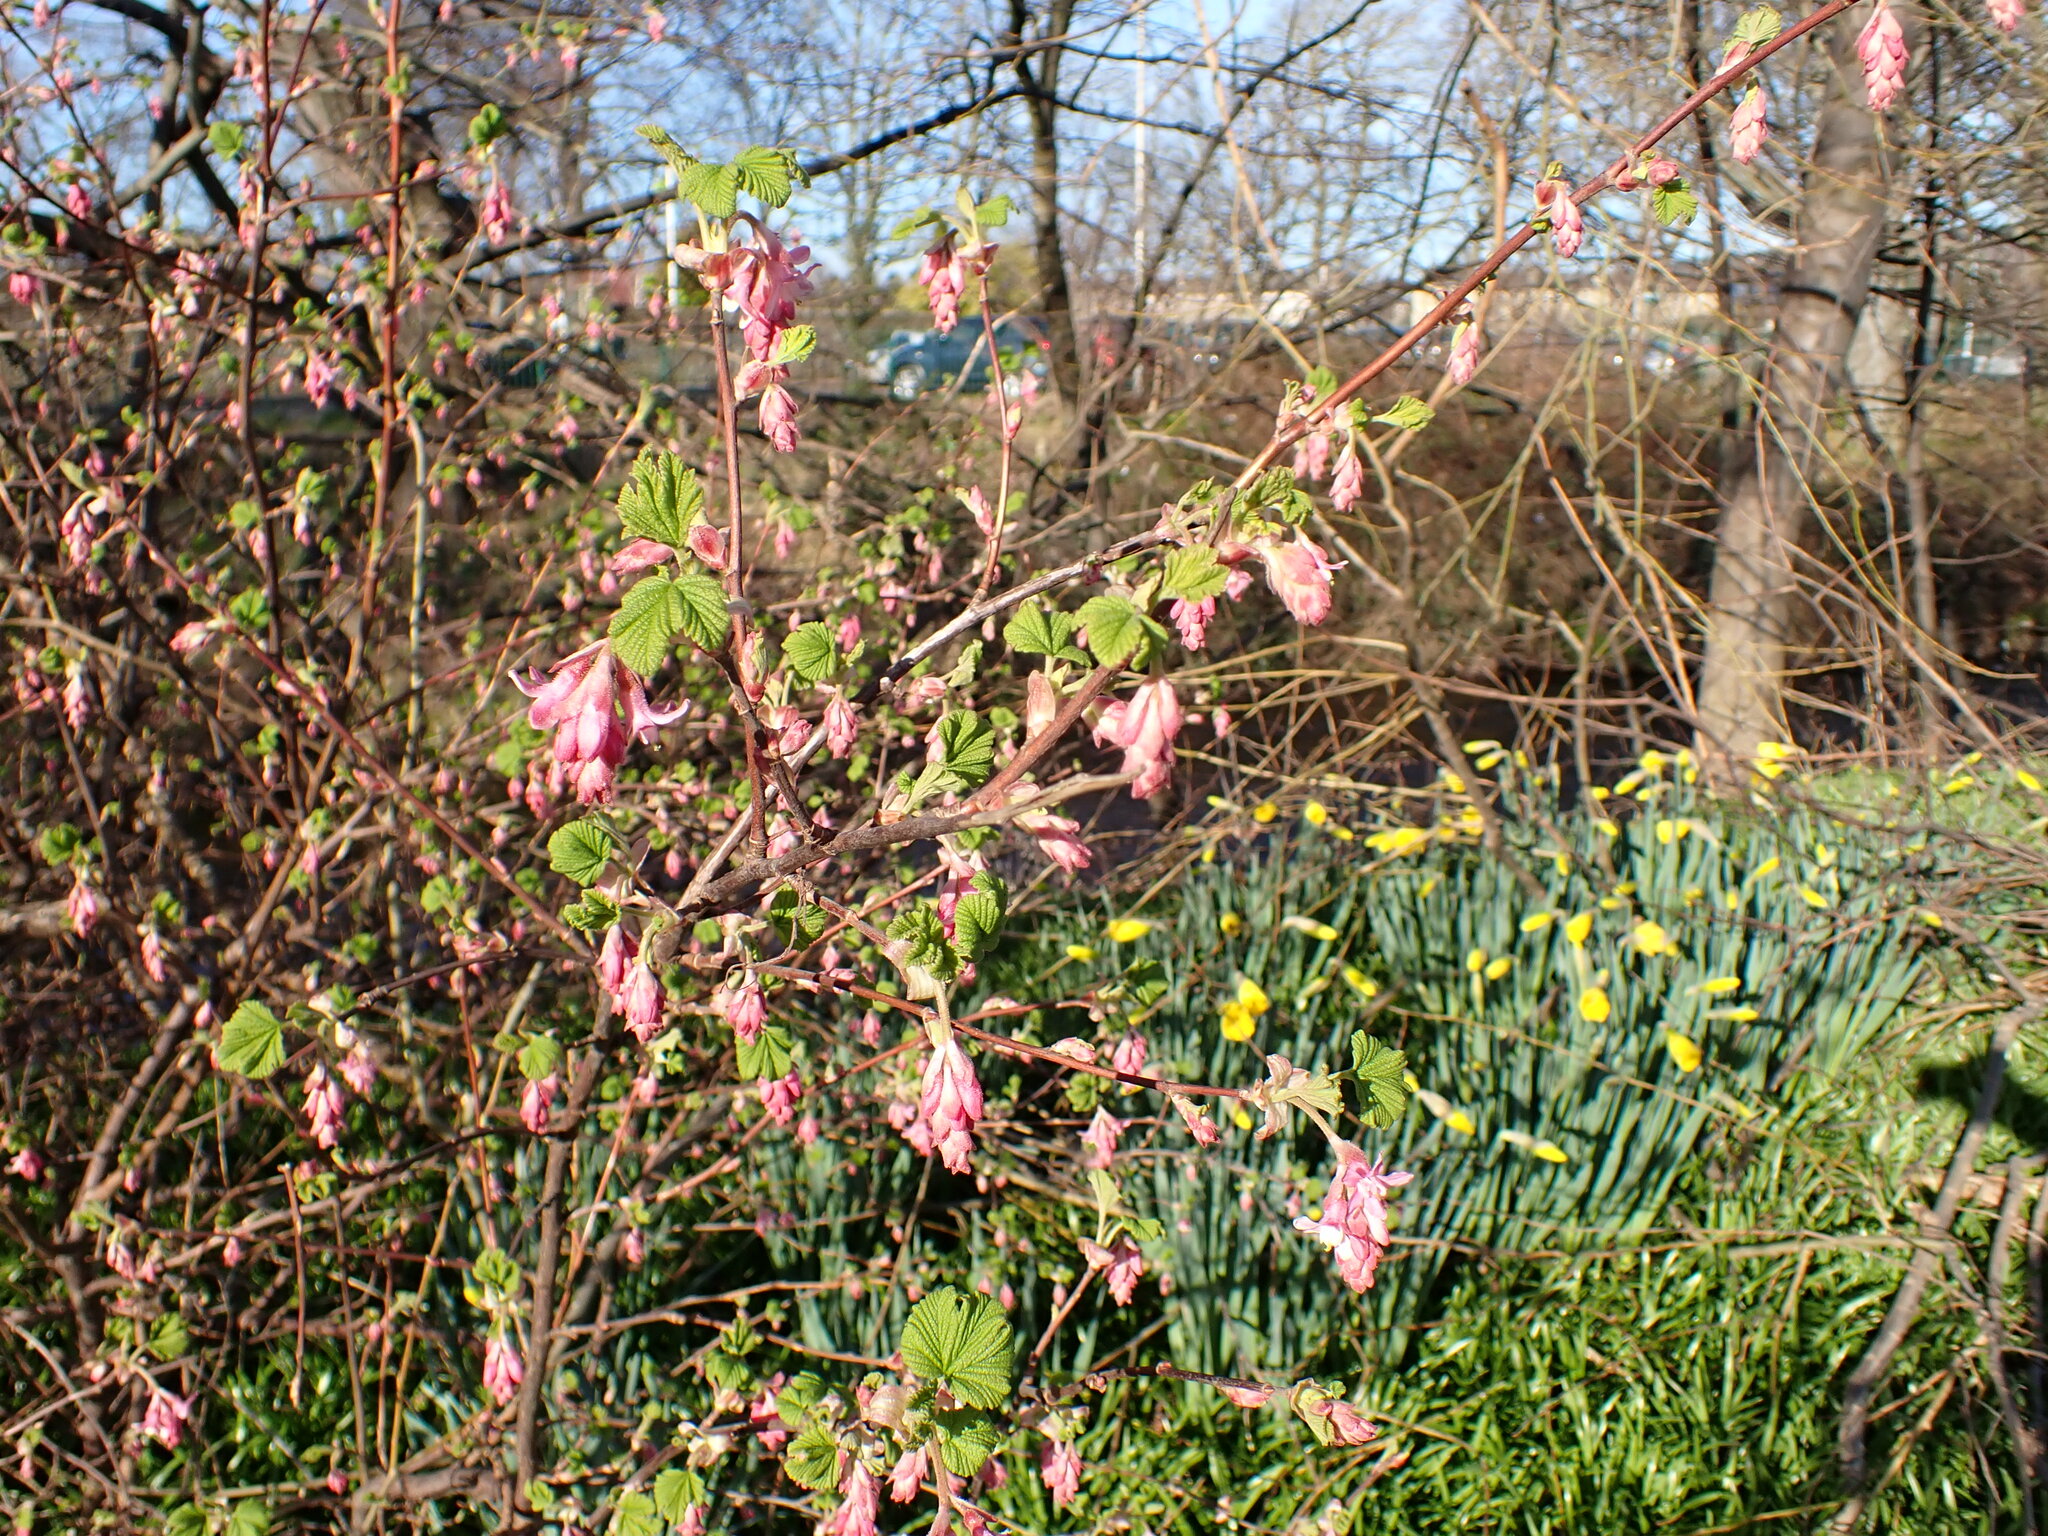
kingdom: Plantae
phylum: Tracheophyta
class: Magnoliopsida
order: Saxifragales
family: Grossulariaceae
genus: Ribes
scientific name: Ribes sanguineum
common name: Flowering currant
